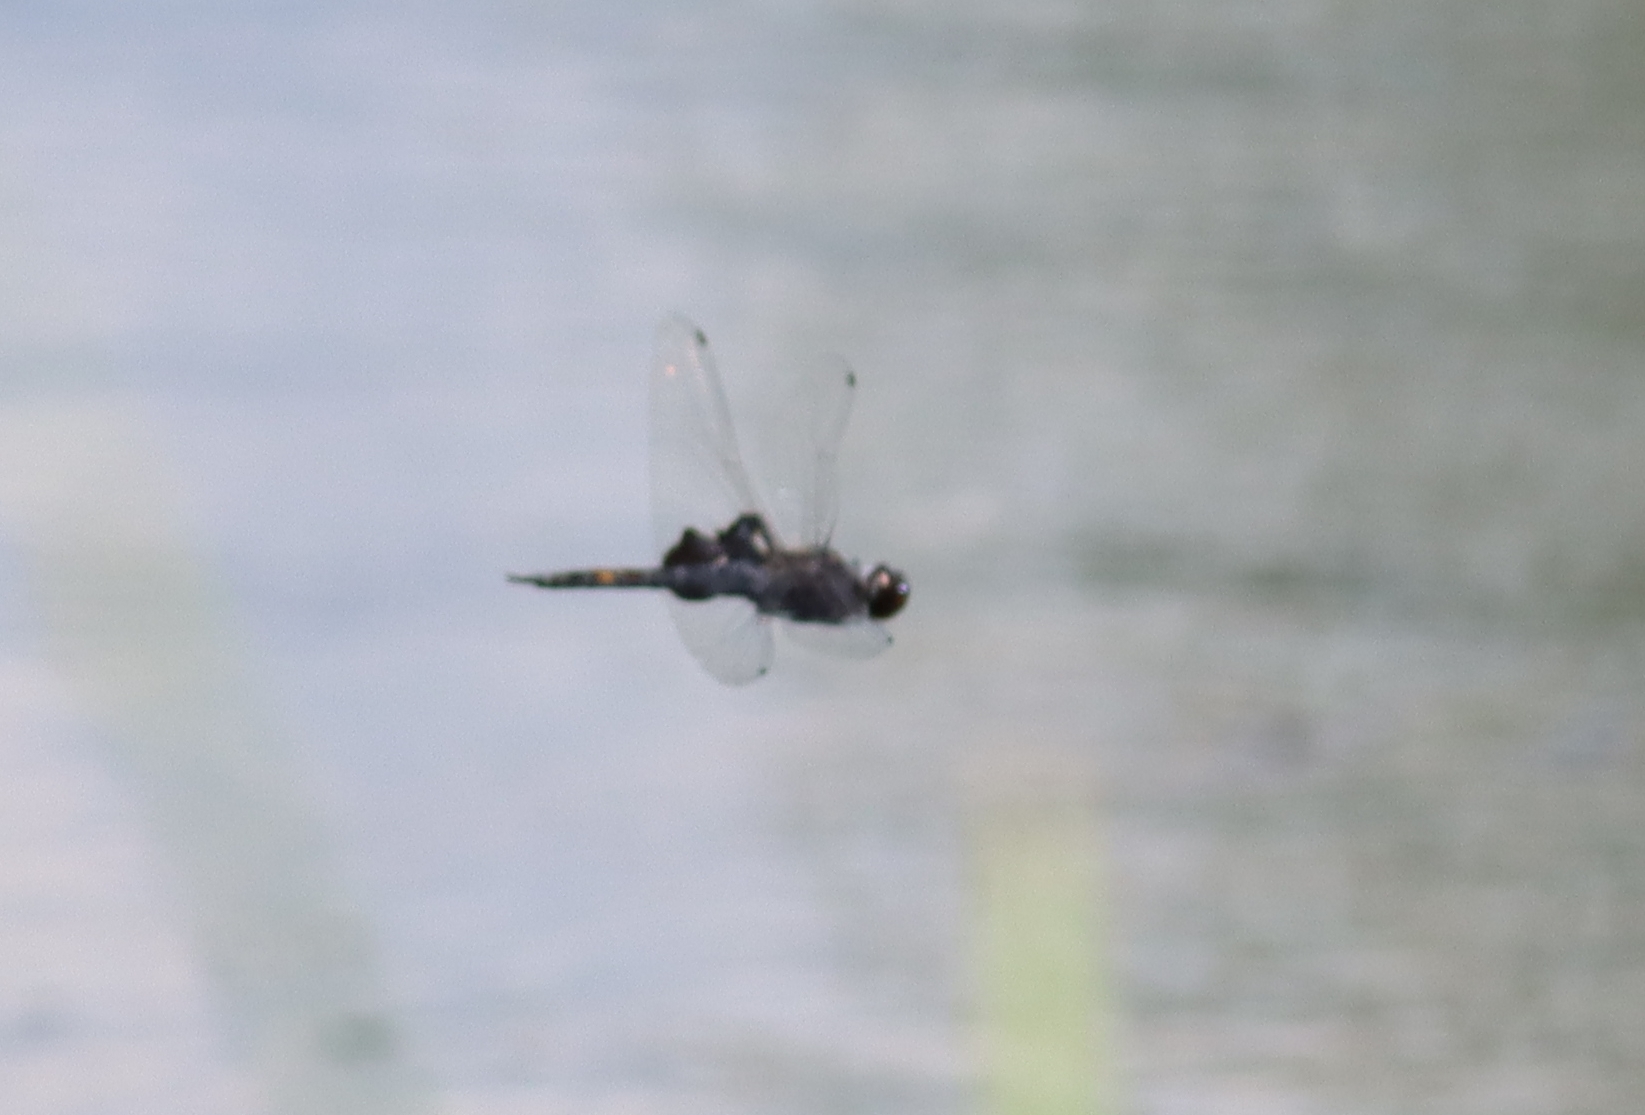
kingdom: Animalia
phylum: Arthropoda
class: Insecta
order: Odonata
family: Libellulidae
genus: Tramea
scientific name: Tramea lacerata
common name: Black saddlebags
